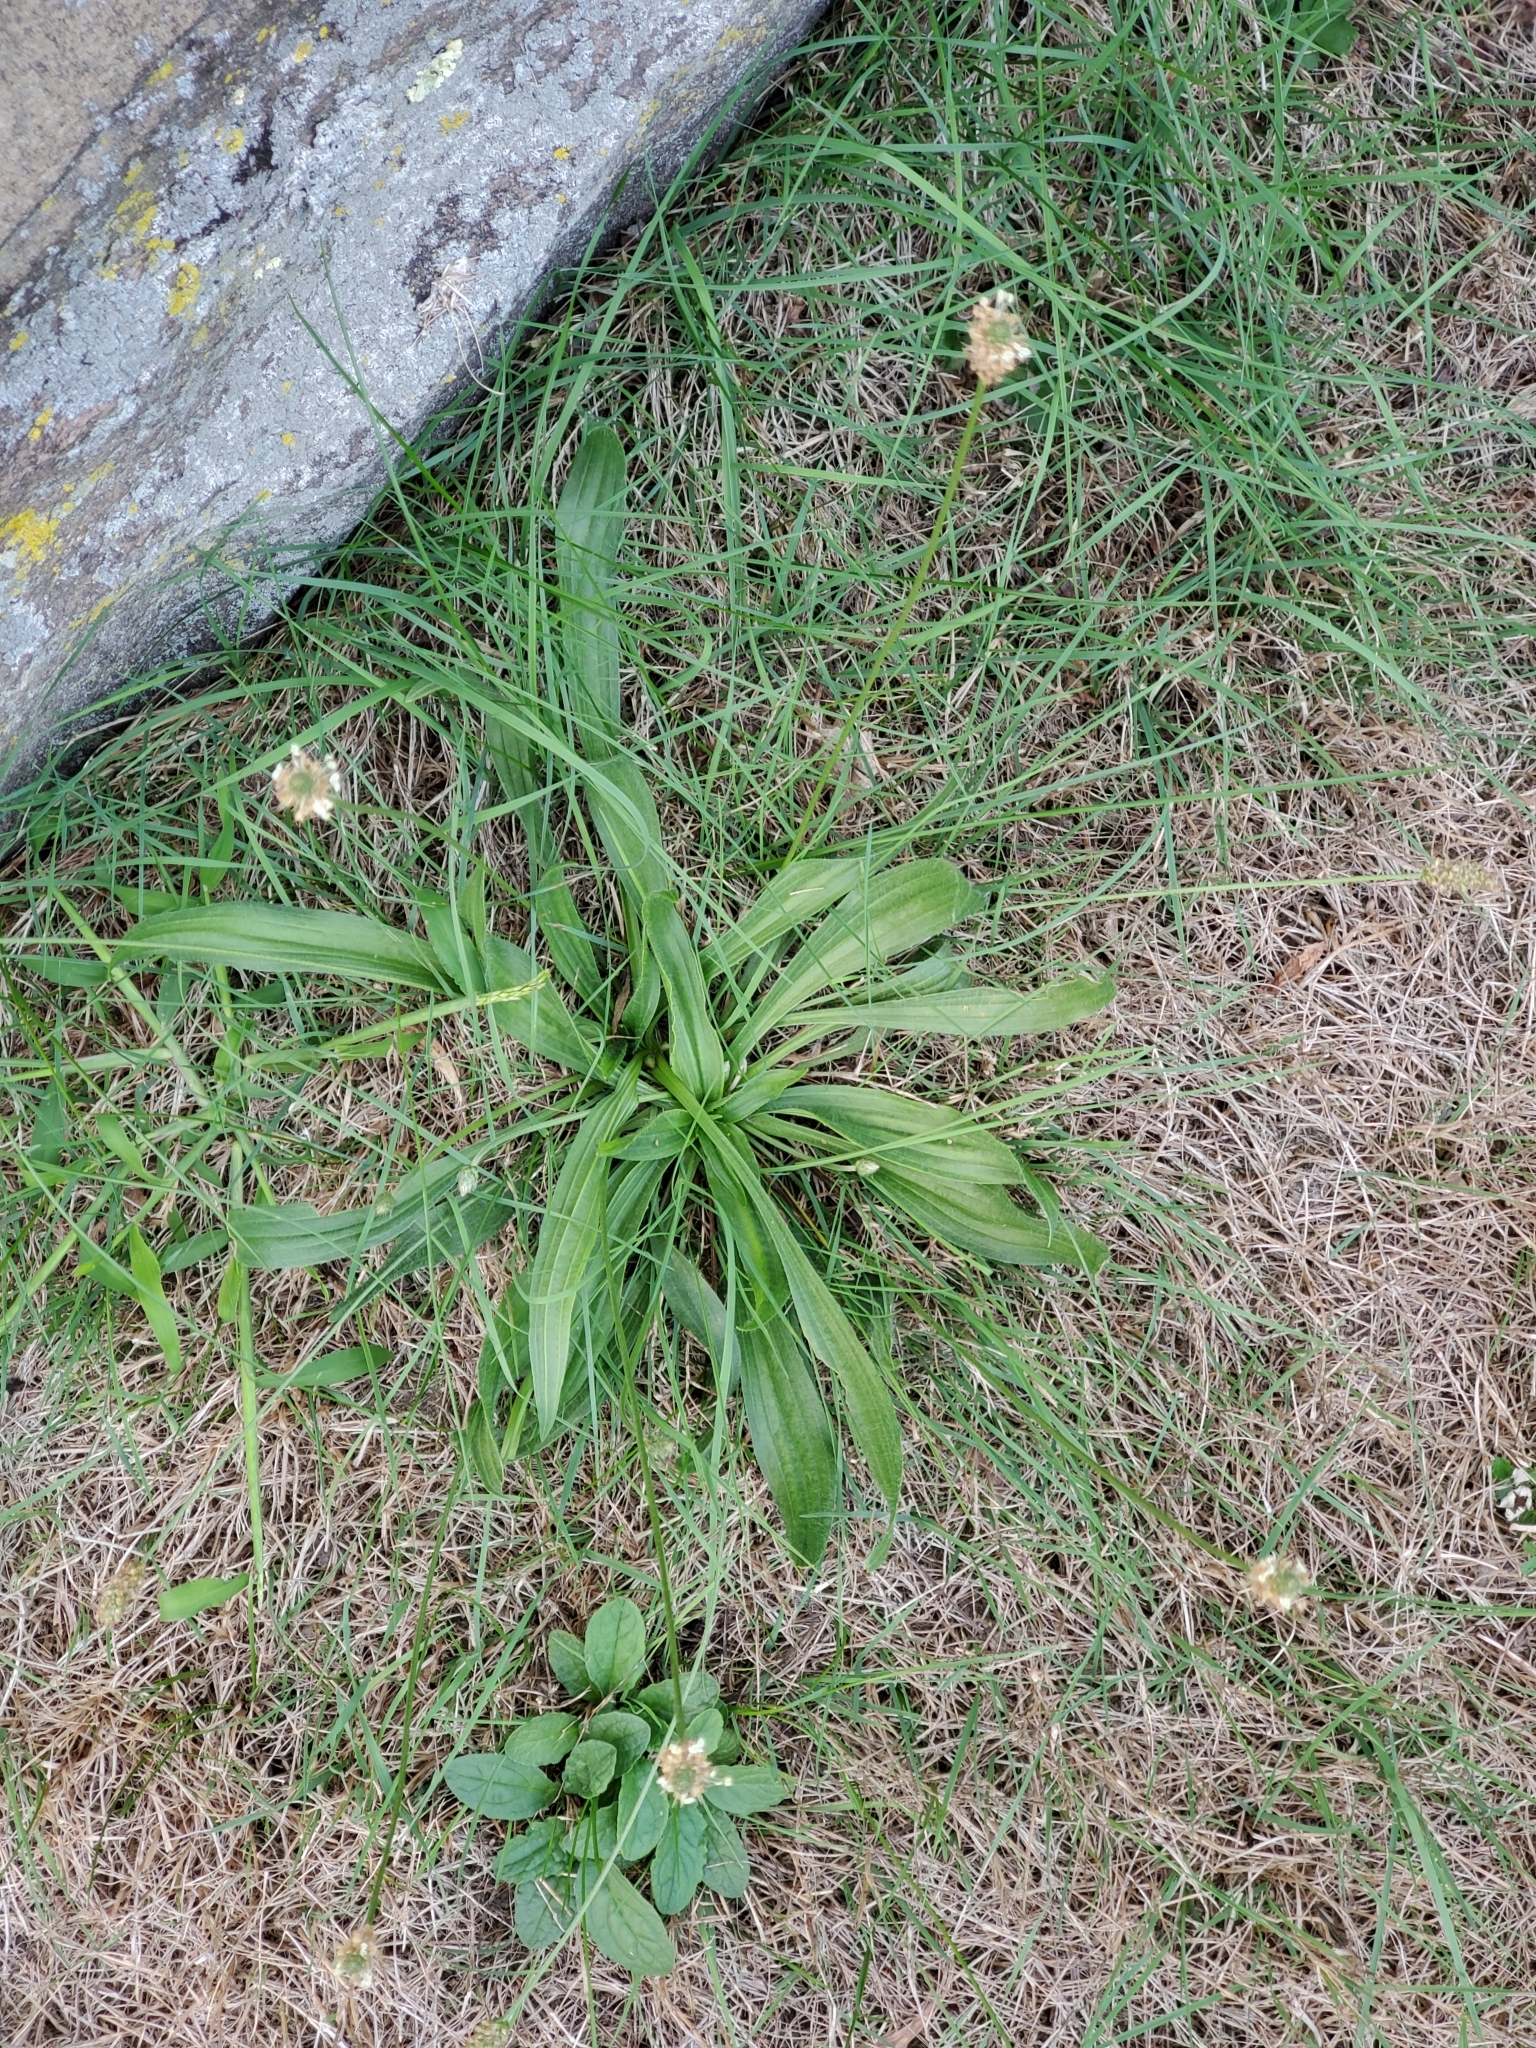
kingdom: Plantae
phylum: Tracheophyta
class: Magnoliopsida
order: Lamiales
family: Plantaginaceae
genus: Plantago
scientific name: Plantago lanceolata
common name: Ribwort plantain
